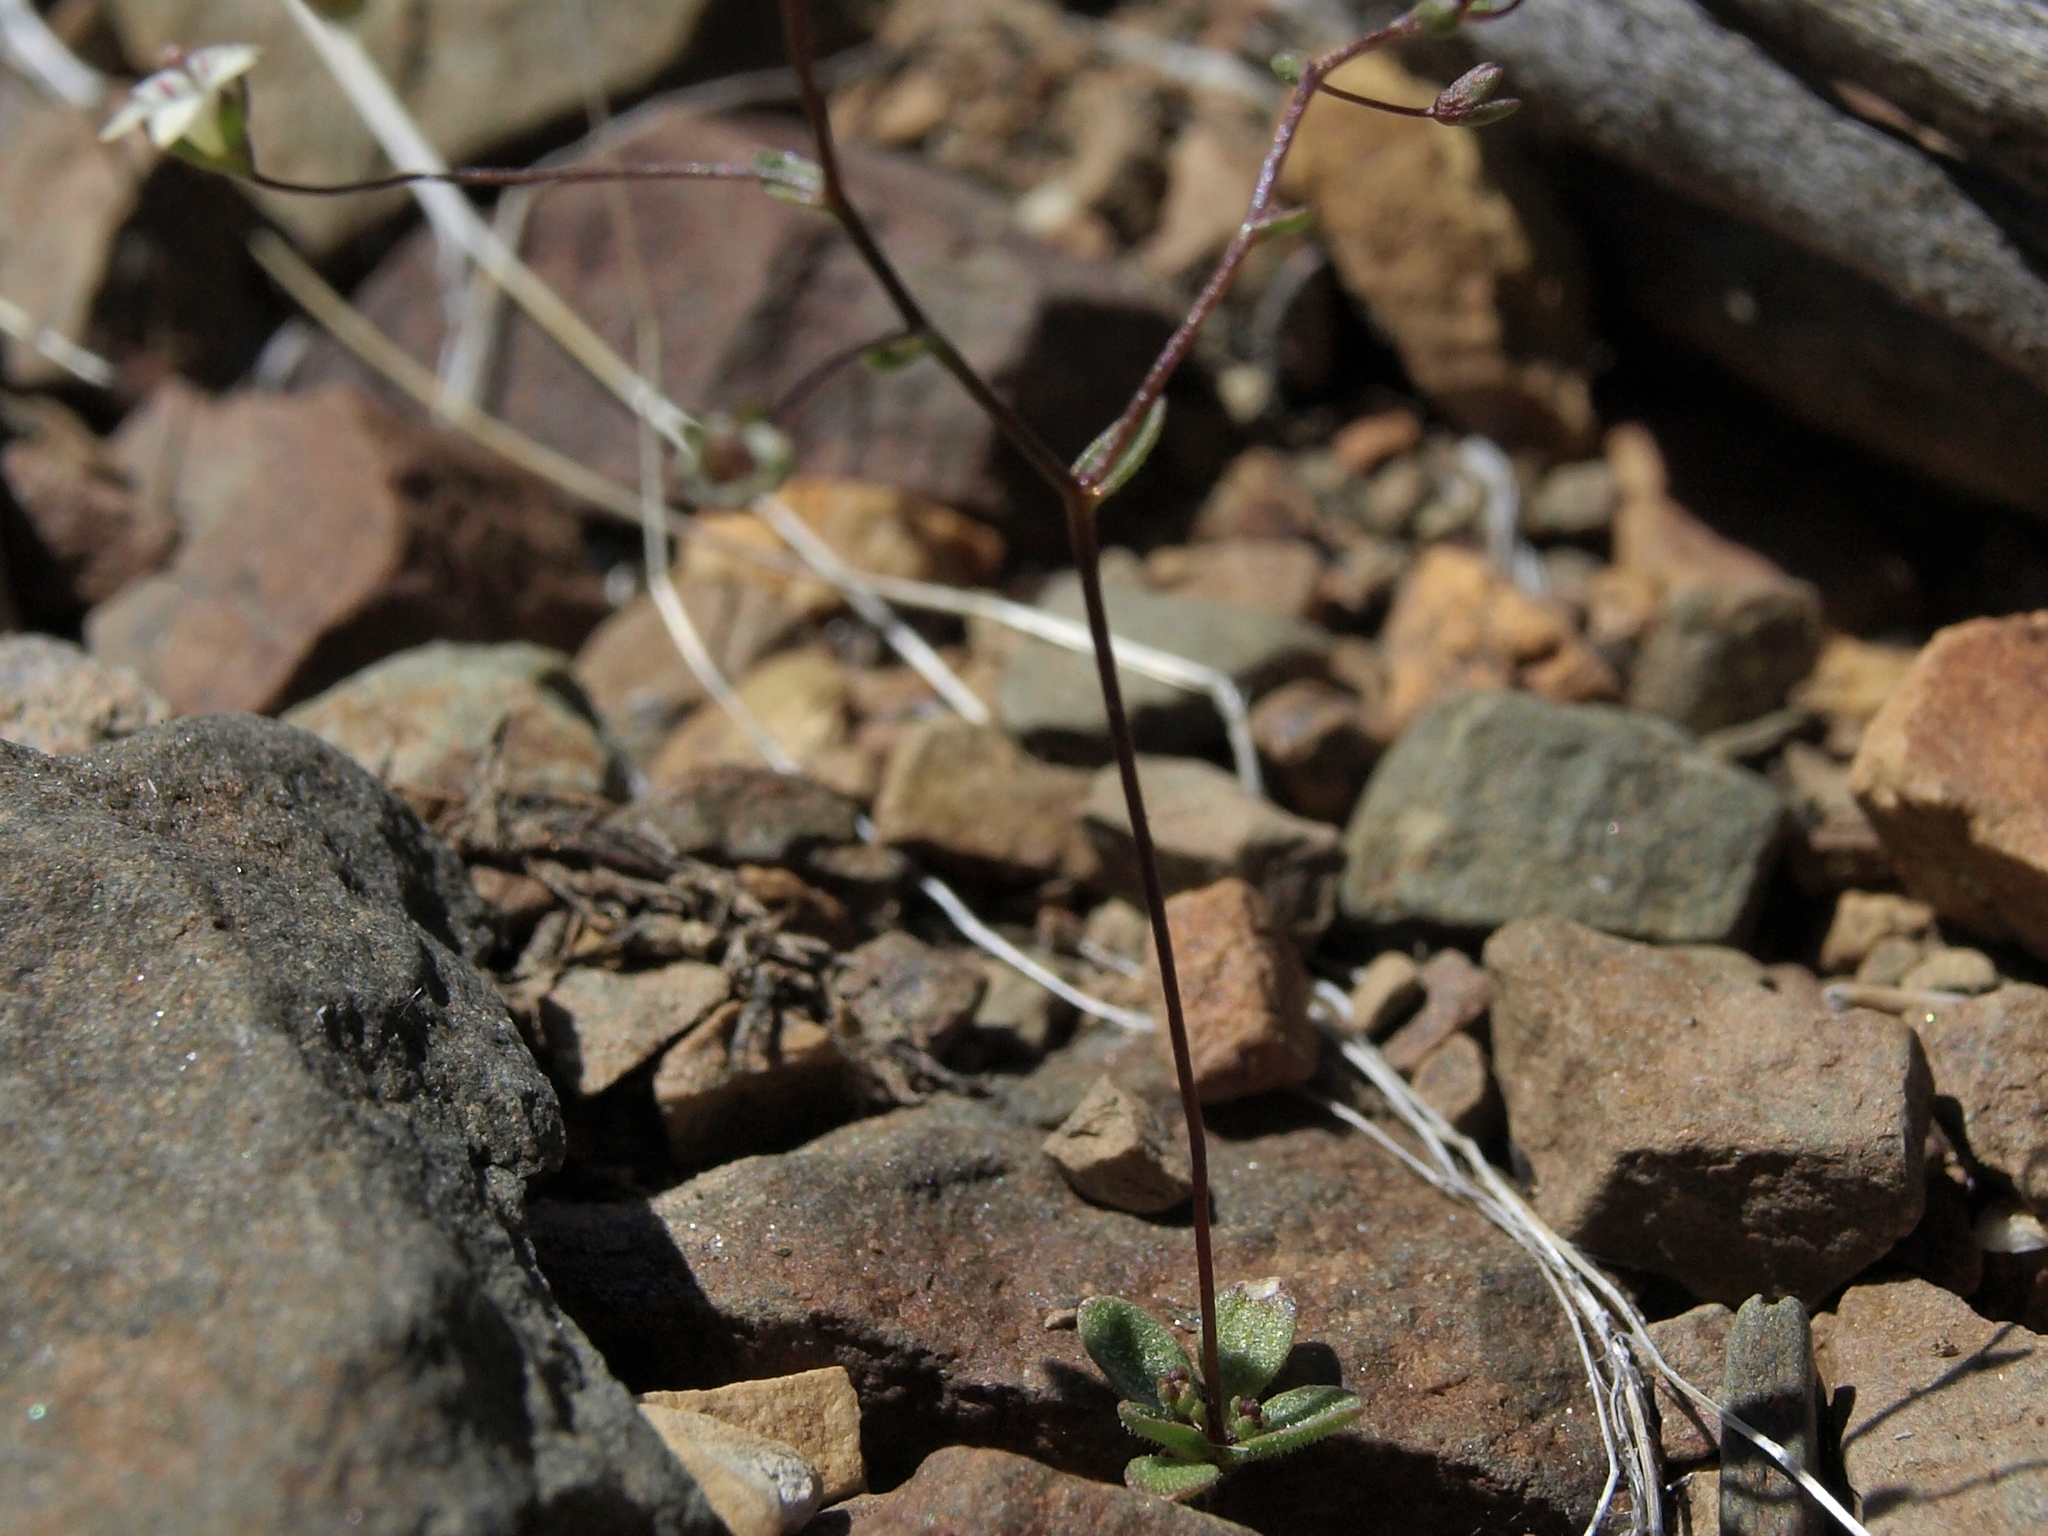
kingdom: Plantae
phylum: Tracheophyta
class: Magnoliopsida
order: Asterales
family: Campanulaceae
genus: Nemacladus
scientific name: Nemacladus inyoensis
